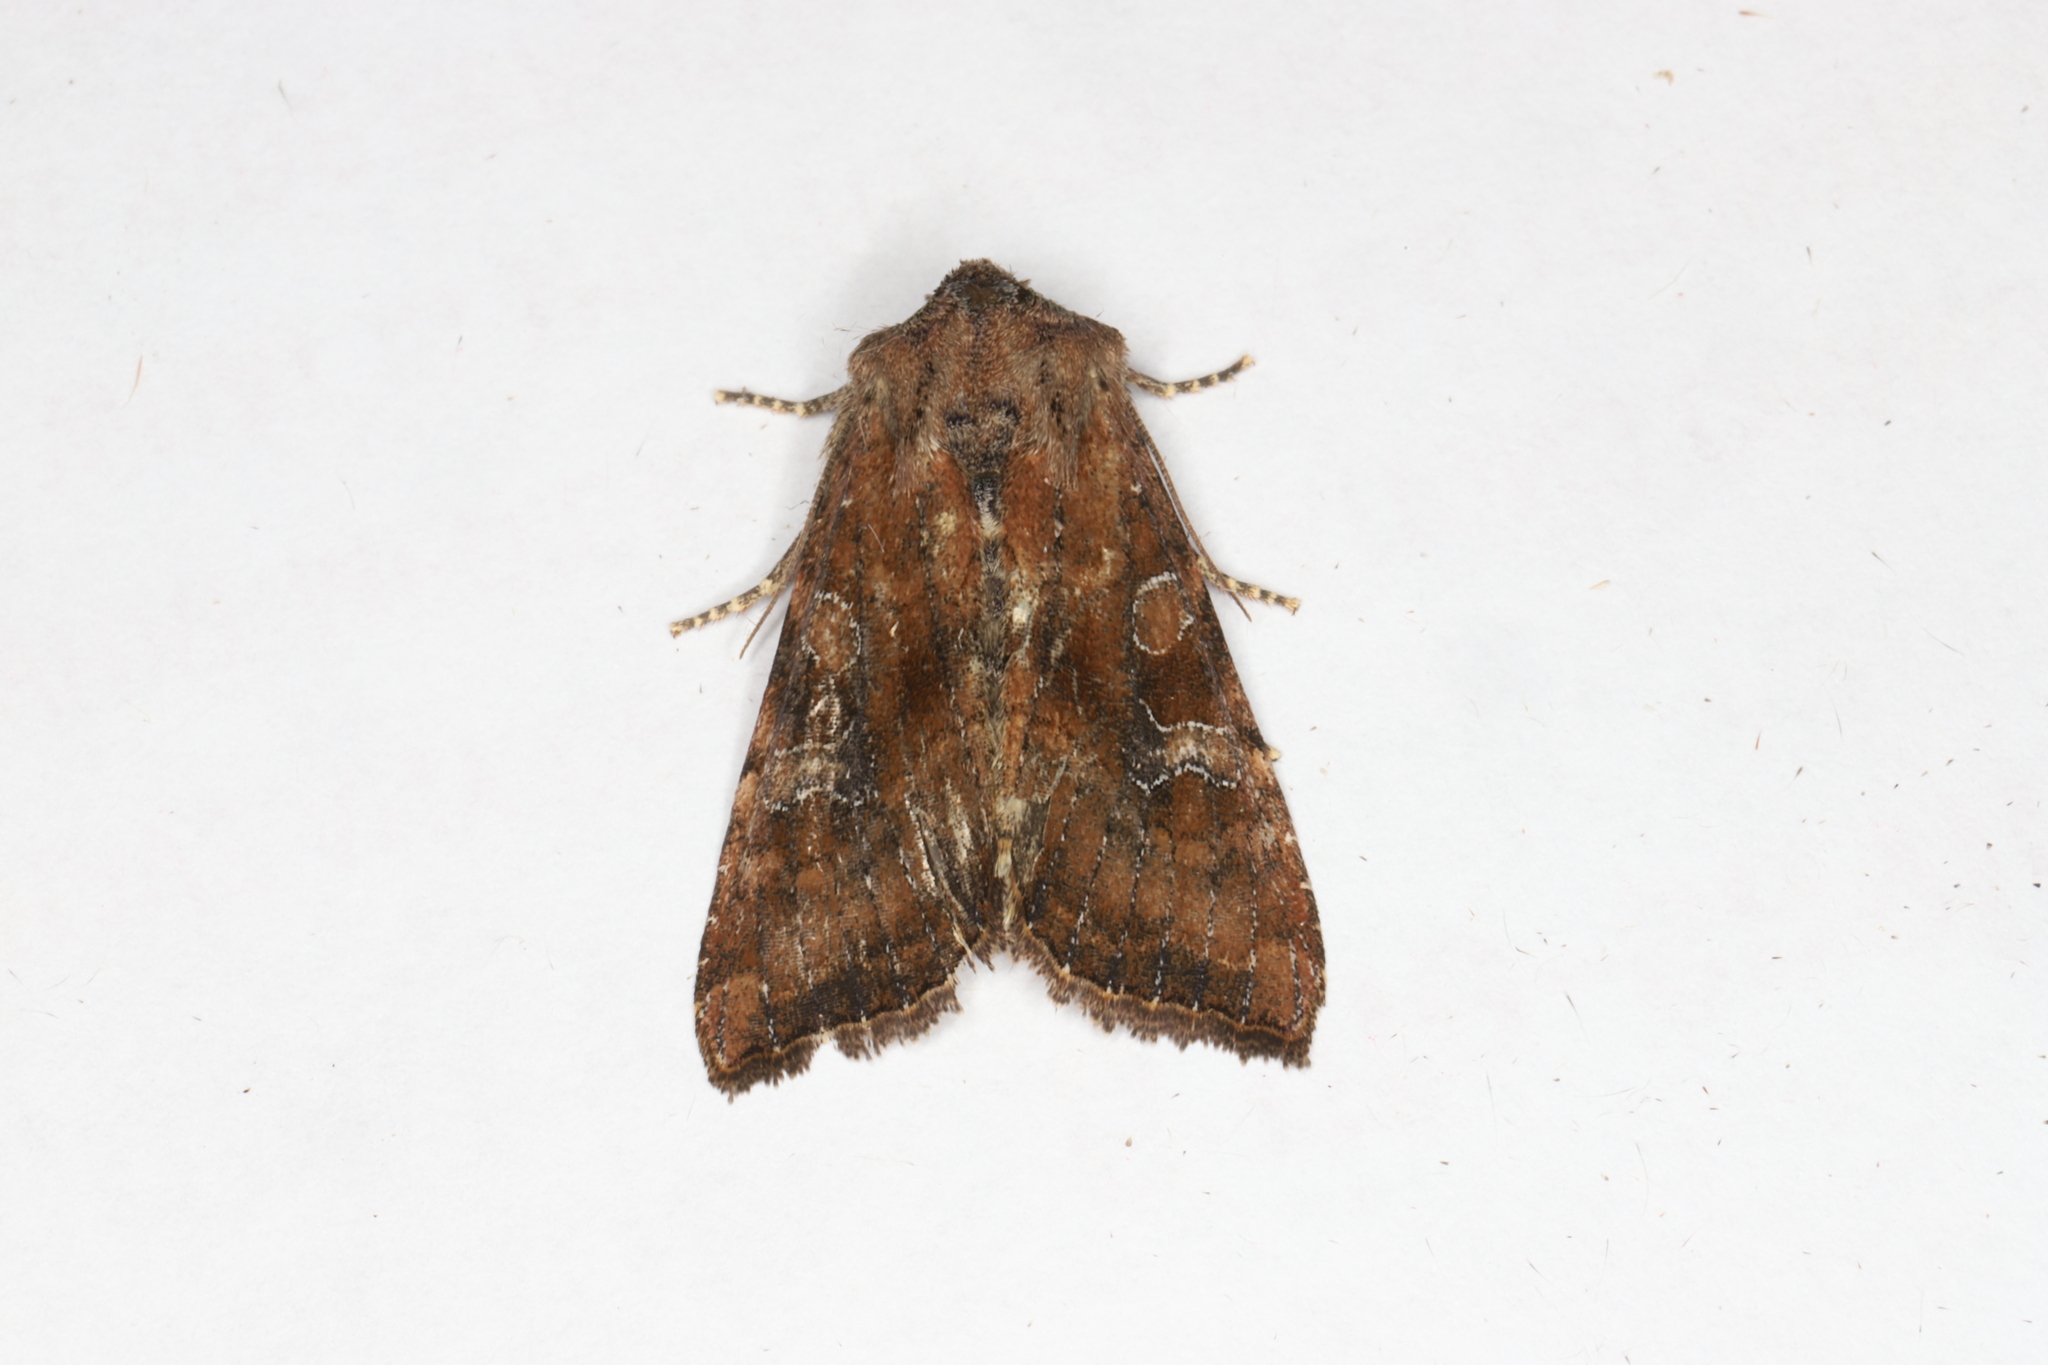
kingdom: Animalia
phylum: Arthropoda
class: Insecta
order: Lepidoptera
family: Noctuidae
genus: Loscopia
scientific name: Loscopia velata
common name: Veiled ear moth
